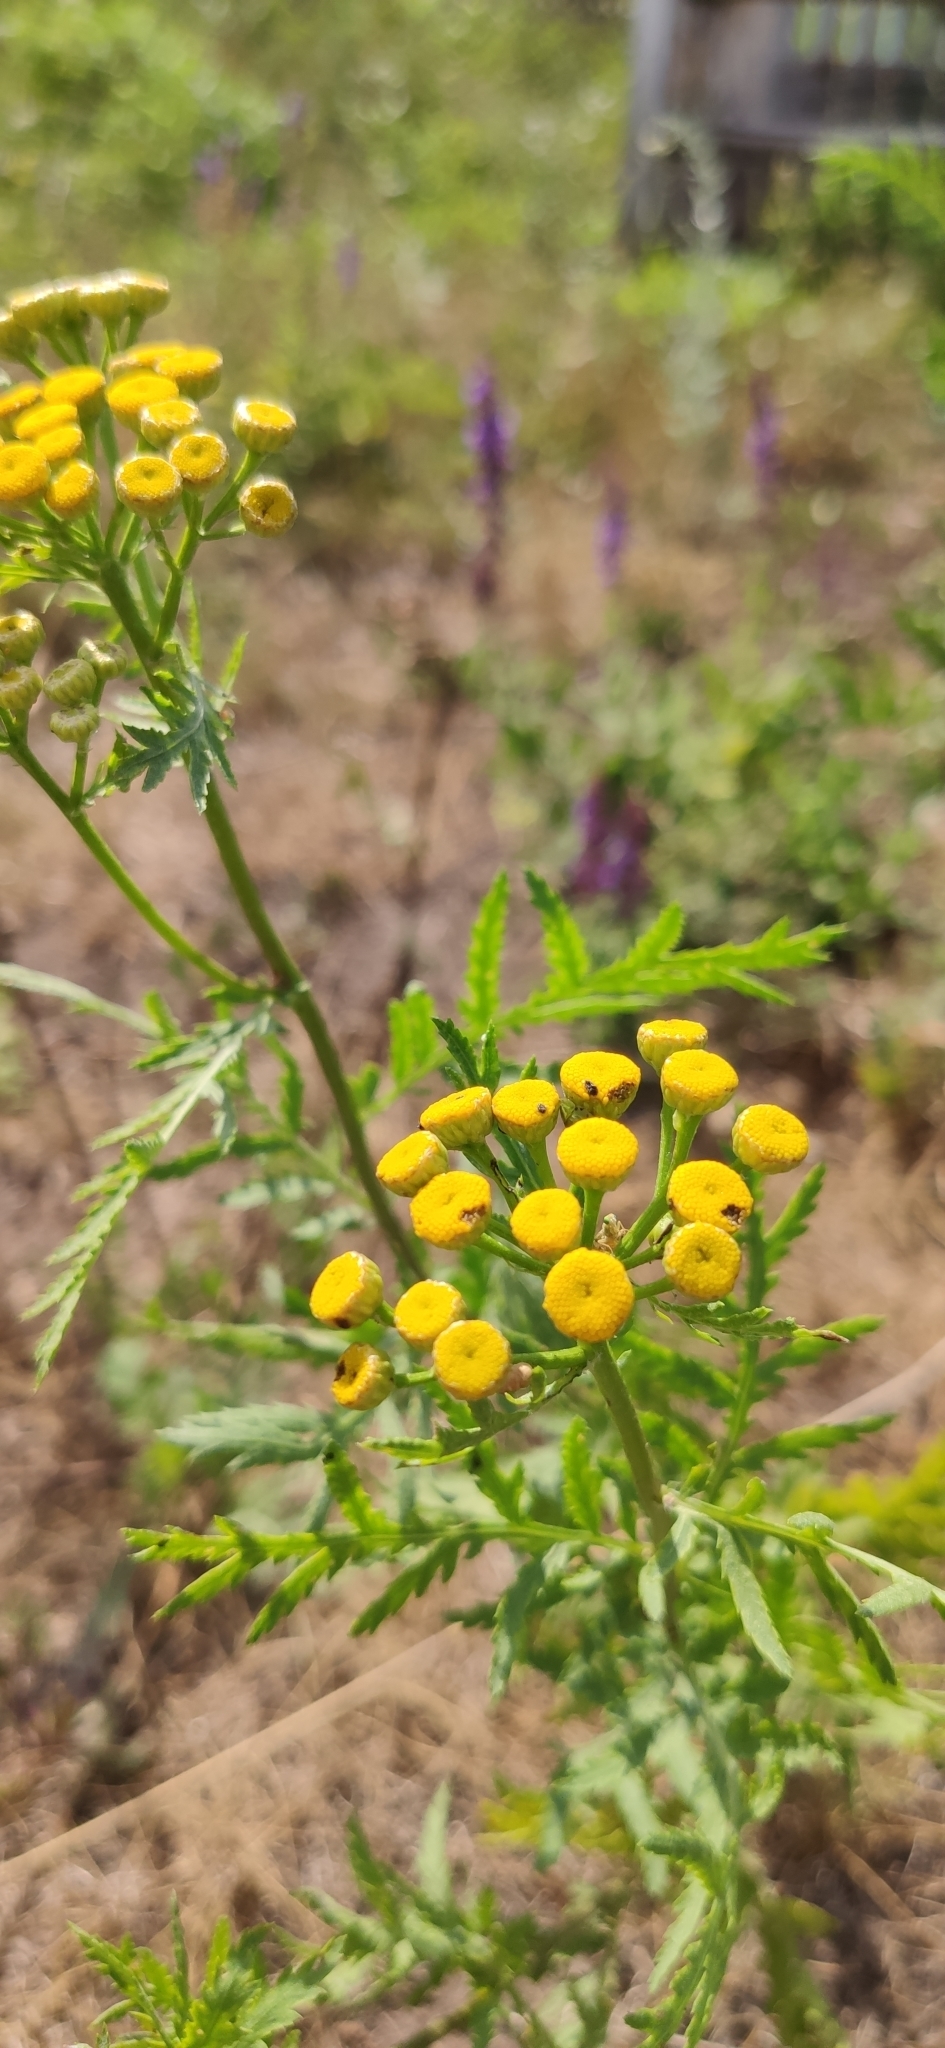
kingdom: Plantae
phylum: Tracheophyta
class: Magnoliopsida
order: Asterales
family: Asteraceae
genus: Tanacetum
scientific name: Tanacetum vulgare
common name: Common tansy
